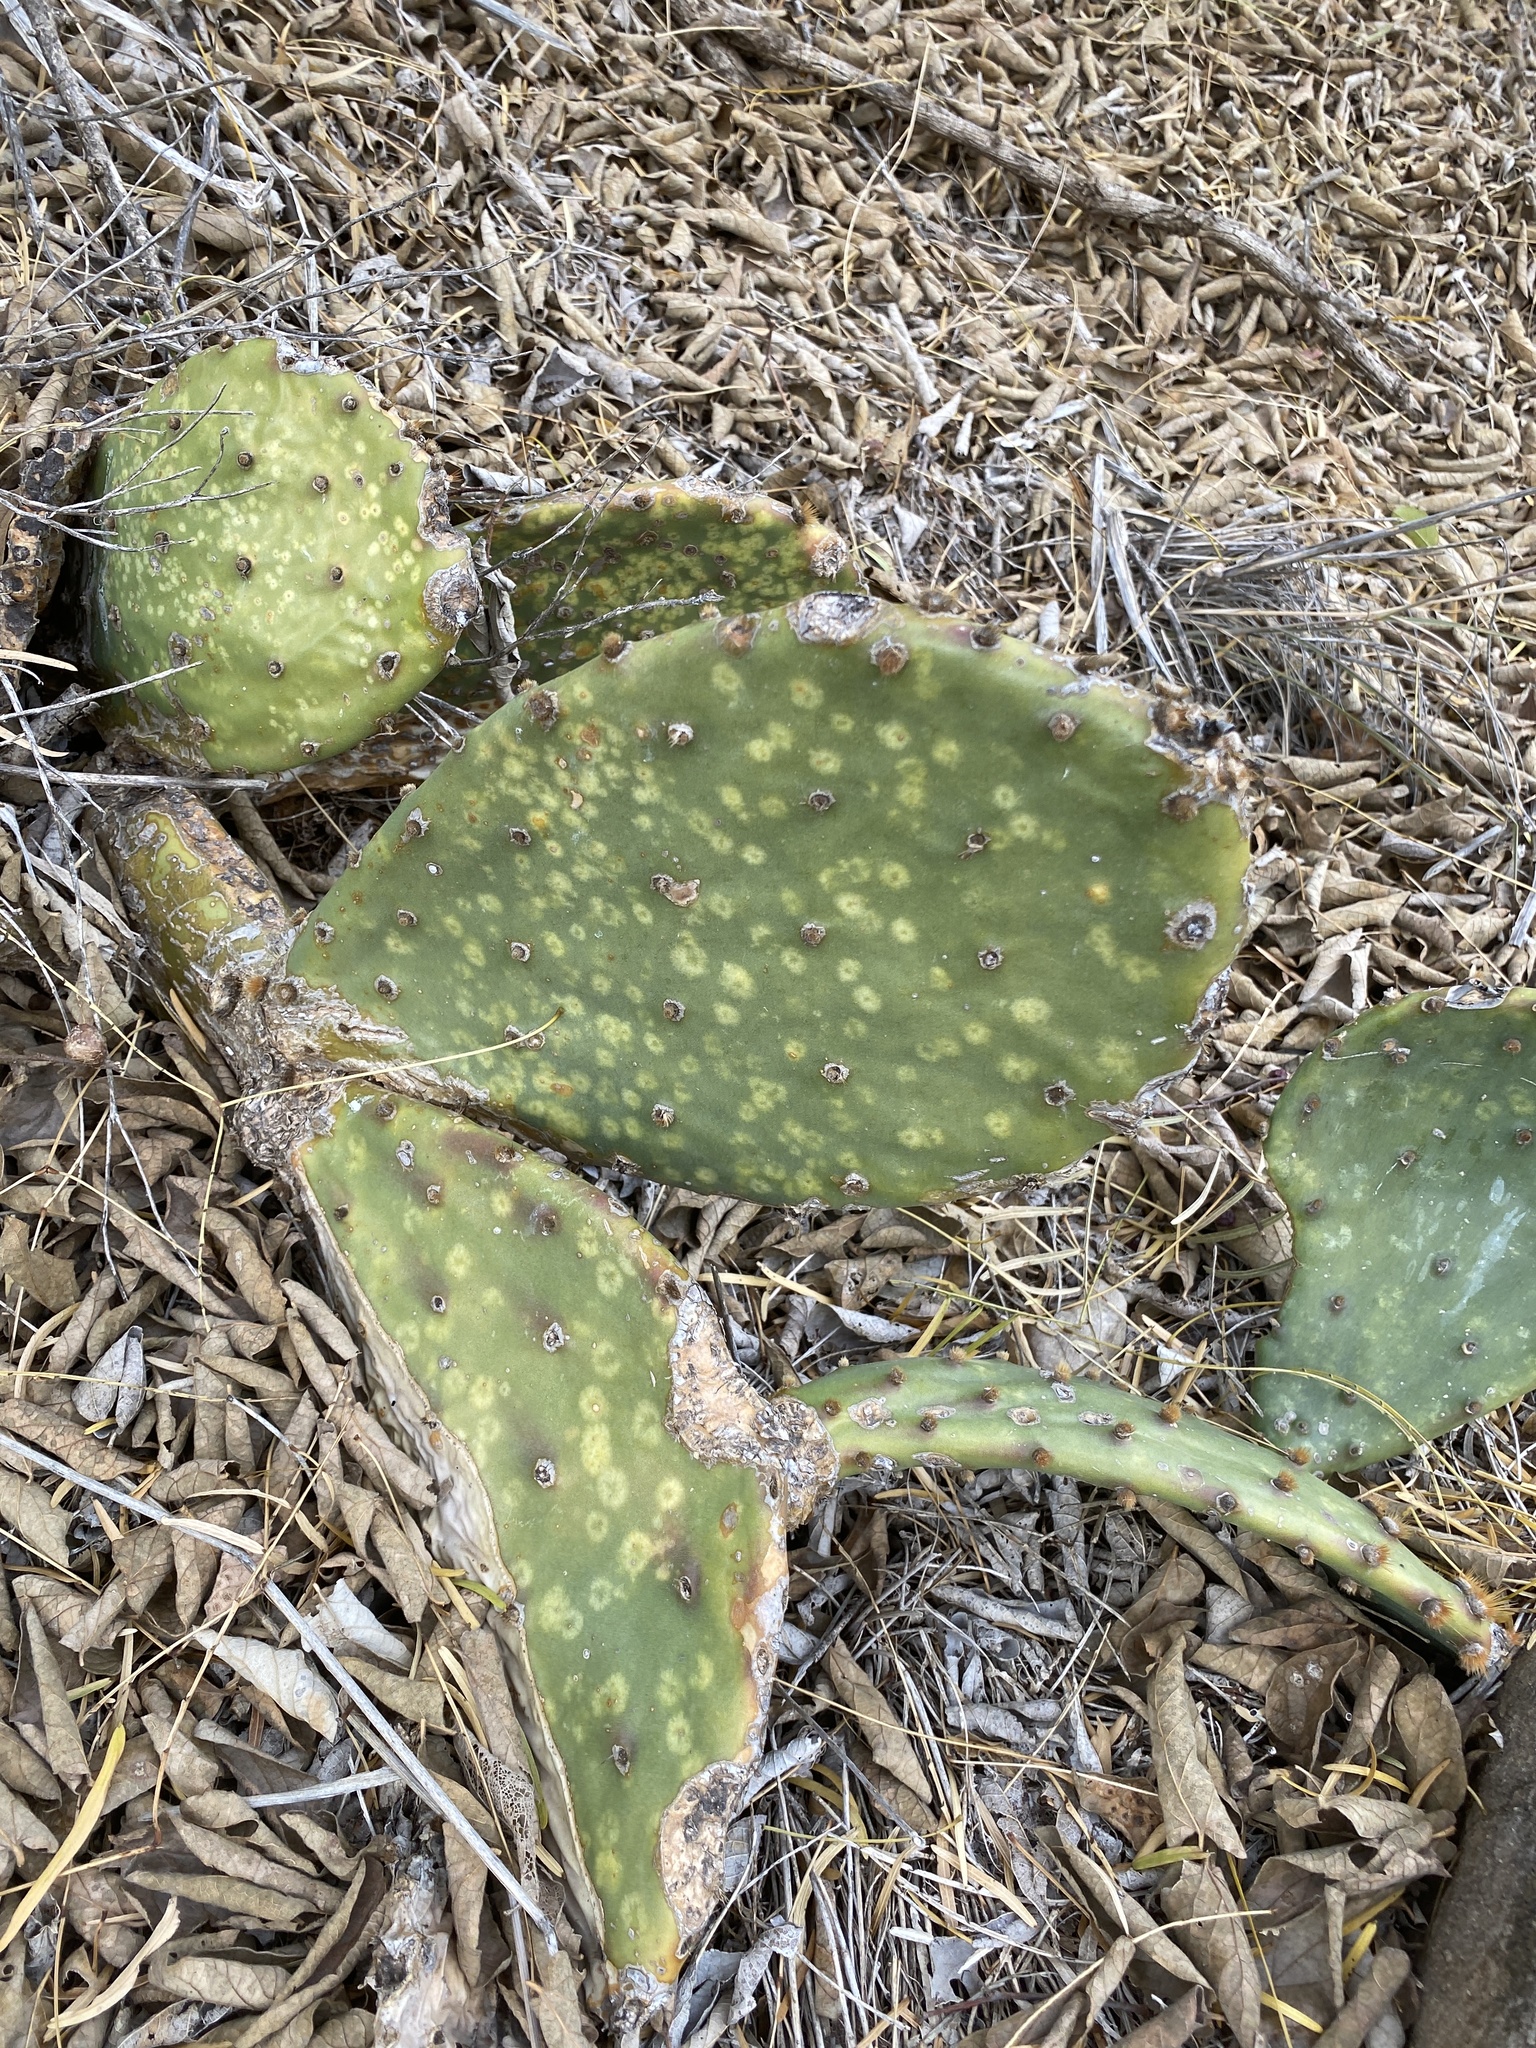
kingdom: Plantae
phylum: Tracheophyta
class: Magnoliopsida
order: Caryophyllales
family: Cactaceae
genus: Opuntia
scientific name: Opuntia engelmannii
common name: Cactus-apple
